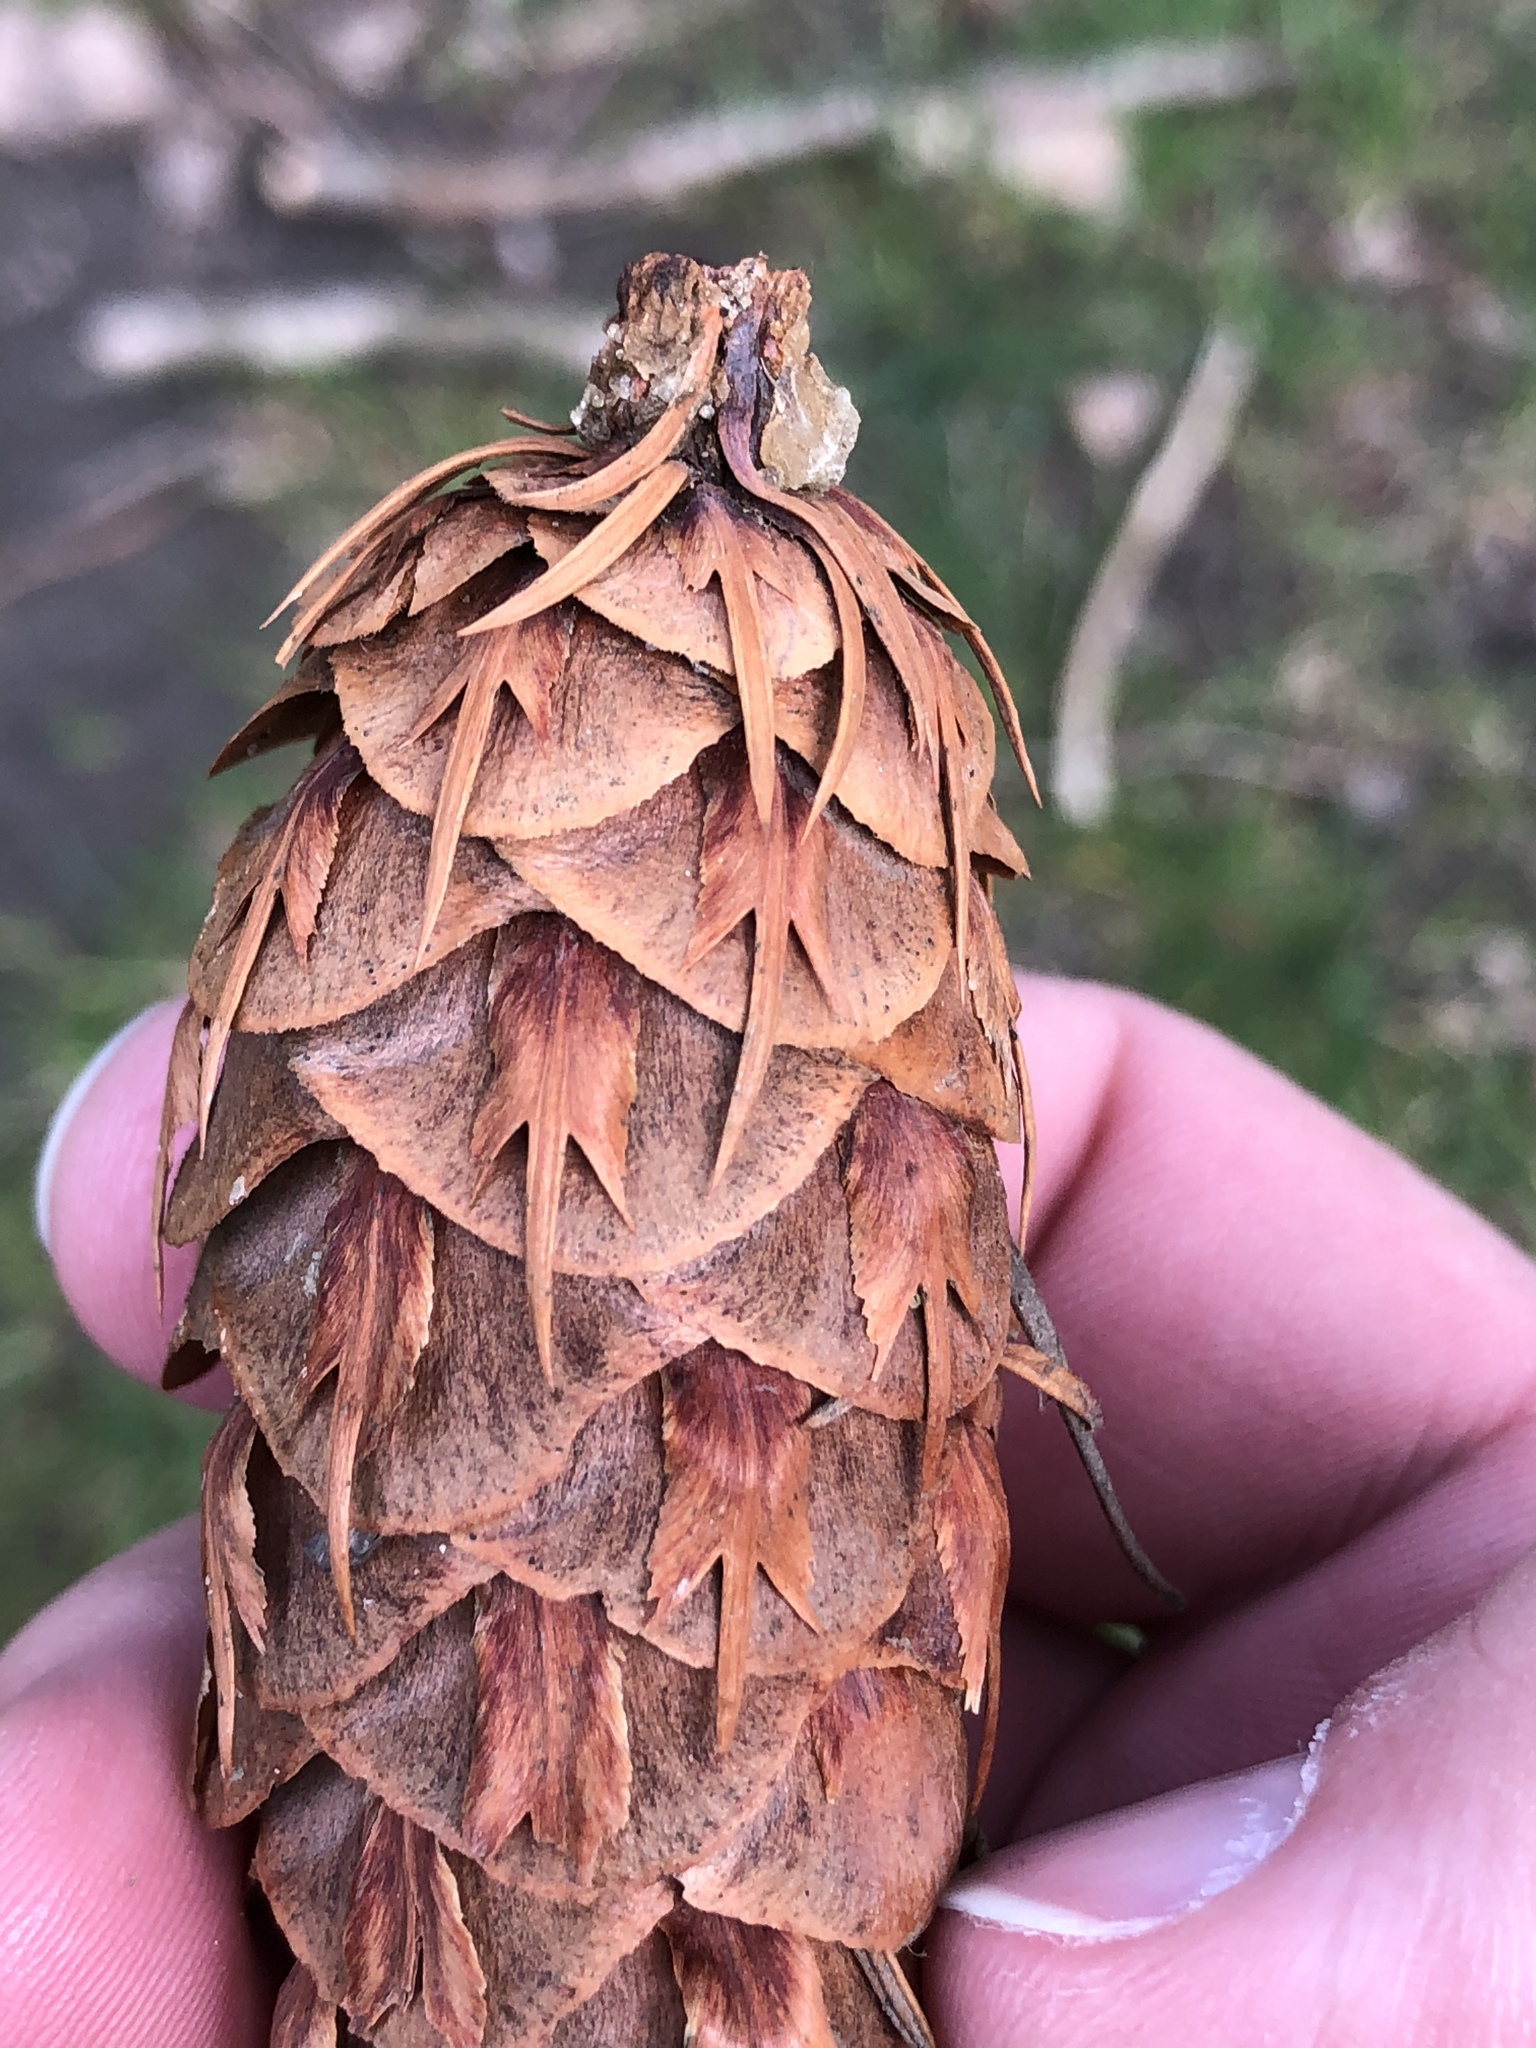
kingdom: Plantae
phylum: Tracheophyta
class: Pinopsida
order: Pinales
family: Pinaceae
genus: Pseudotsuga
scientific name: Pseudotsuga menziesii
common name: Douglas fir
